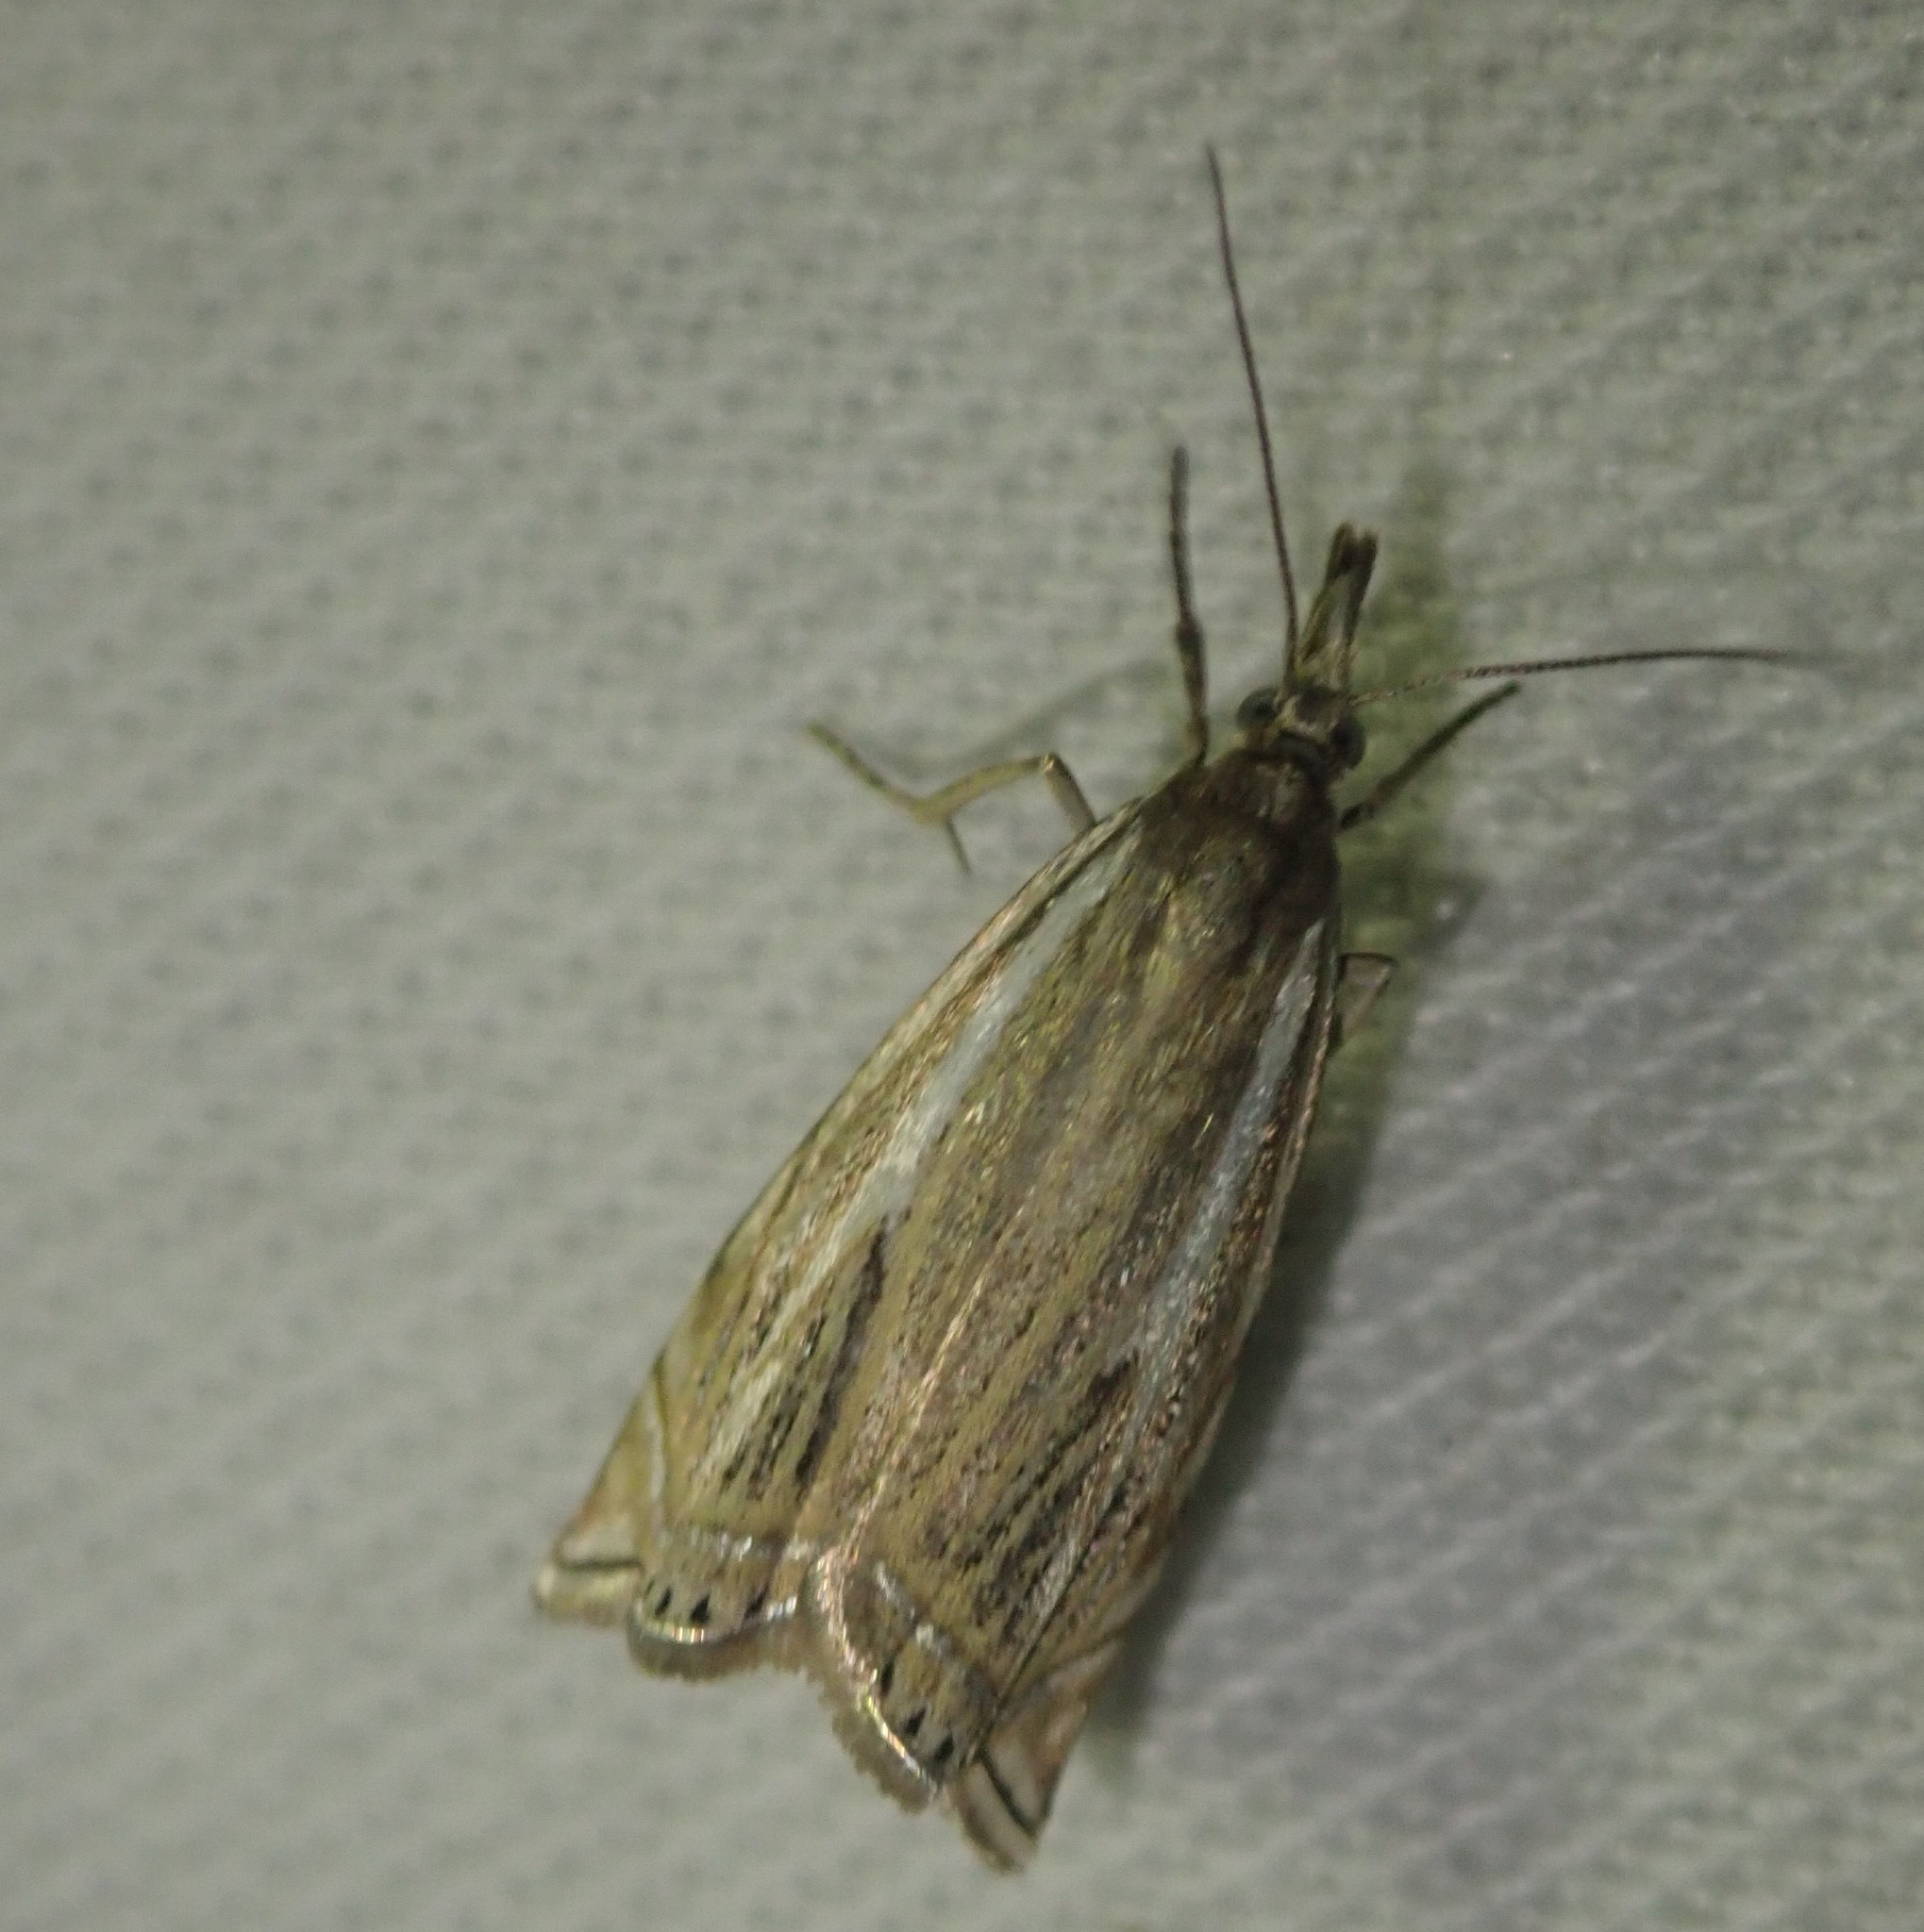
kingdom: Animalia
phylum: Arthropoda
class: Insecta
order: Lepidoptera
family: Crambidae
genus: Crambus
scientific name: Crambus nemorella
